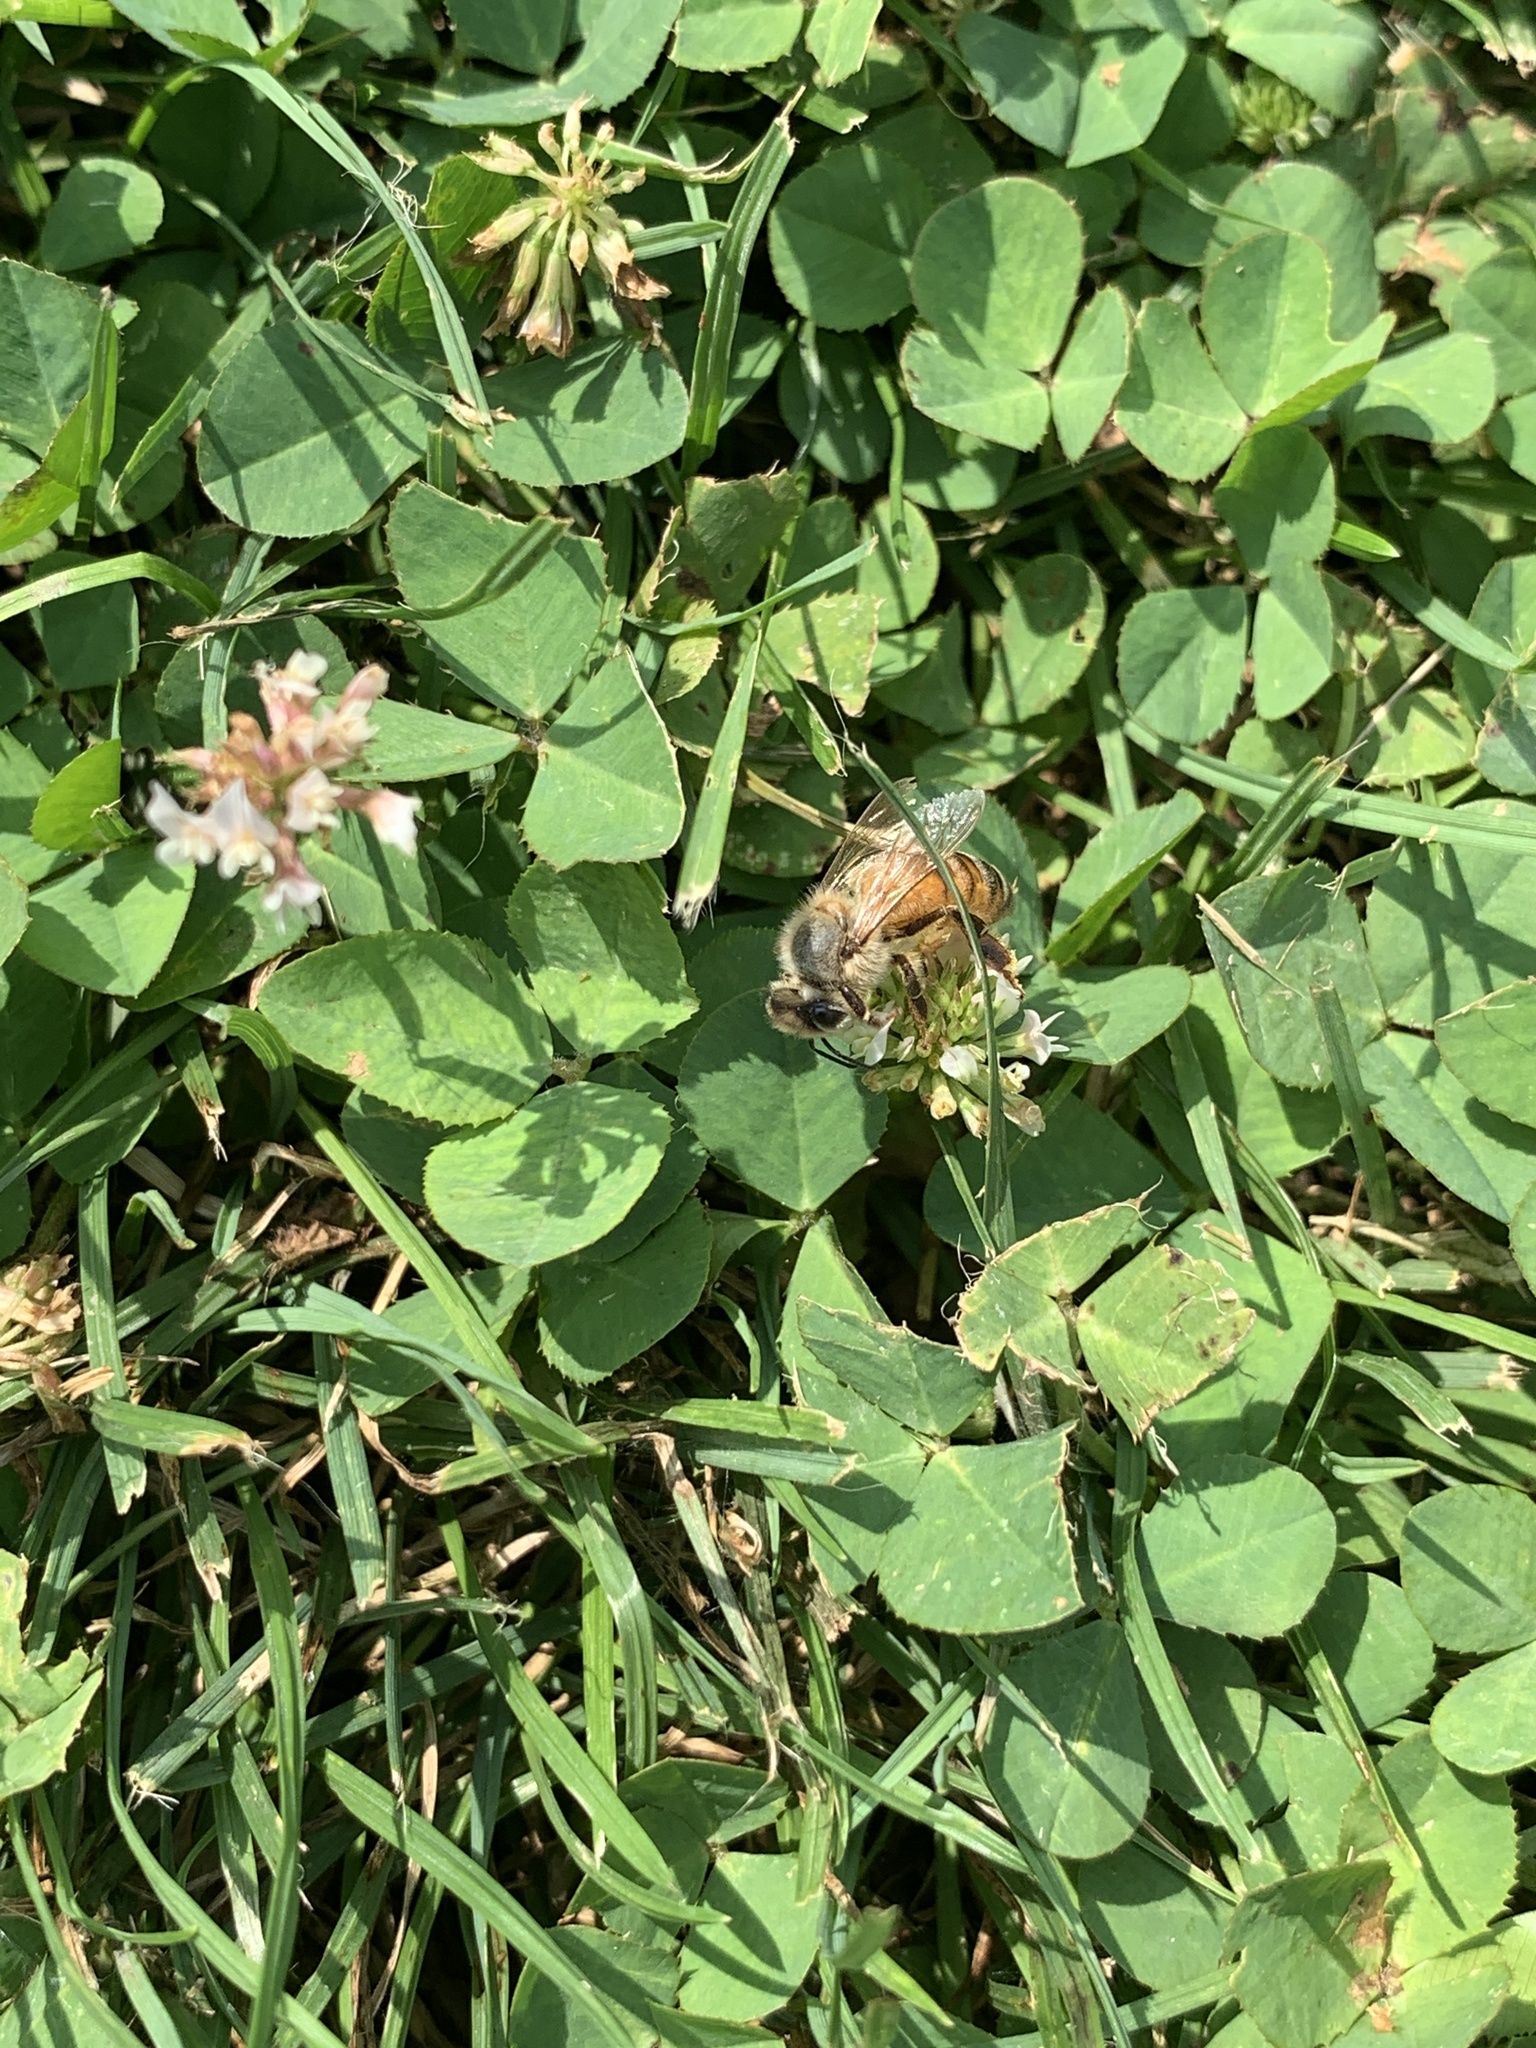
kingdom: Animalia
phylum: Arthropoda
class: Insecta
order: Hymenoptera
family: Apidae
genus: Apis
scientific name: Apis mellifera
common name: Honey bee
